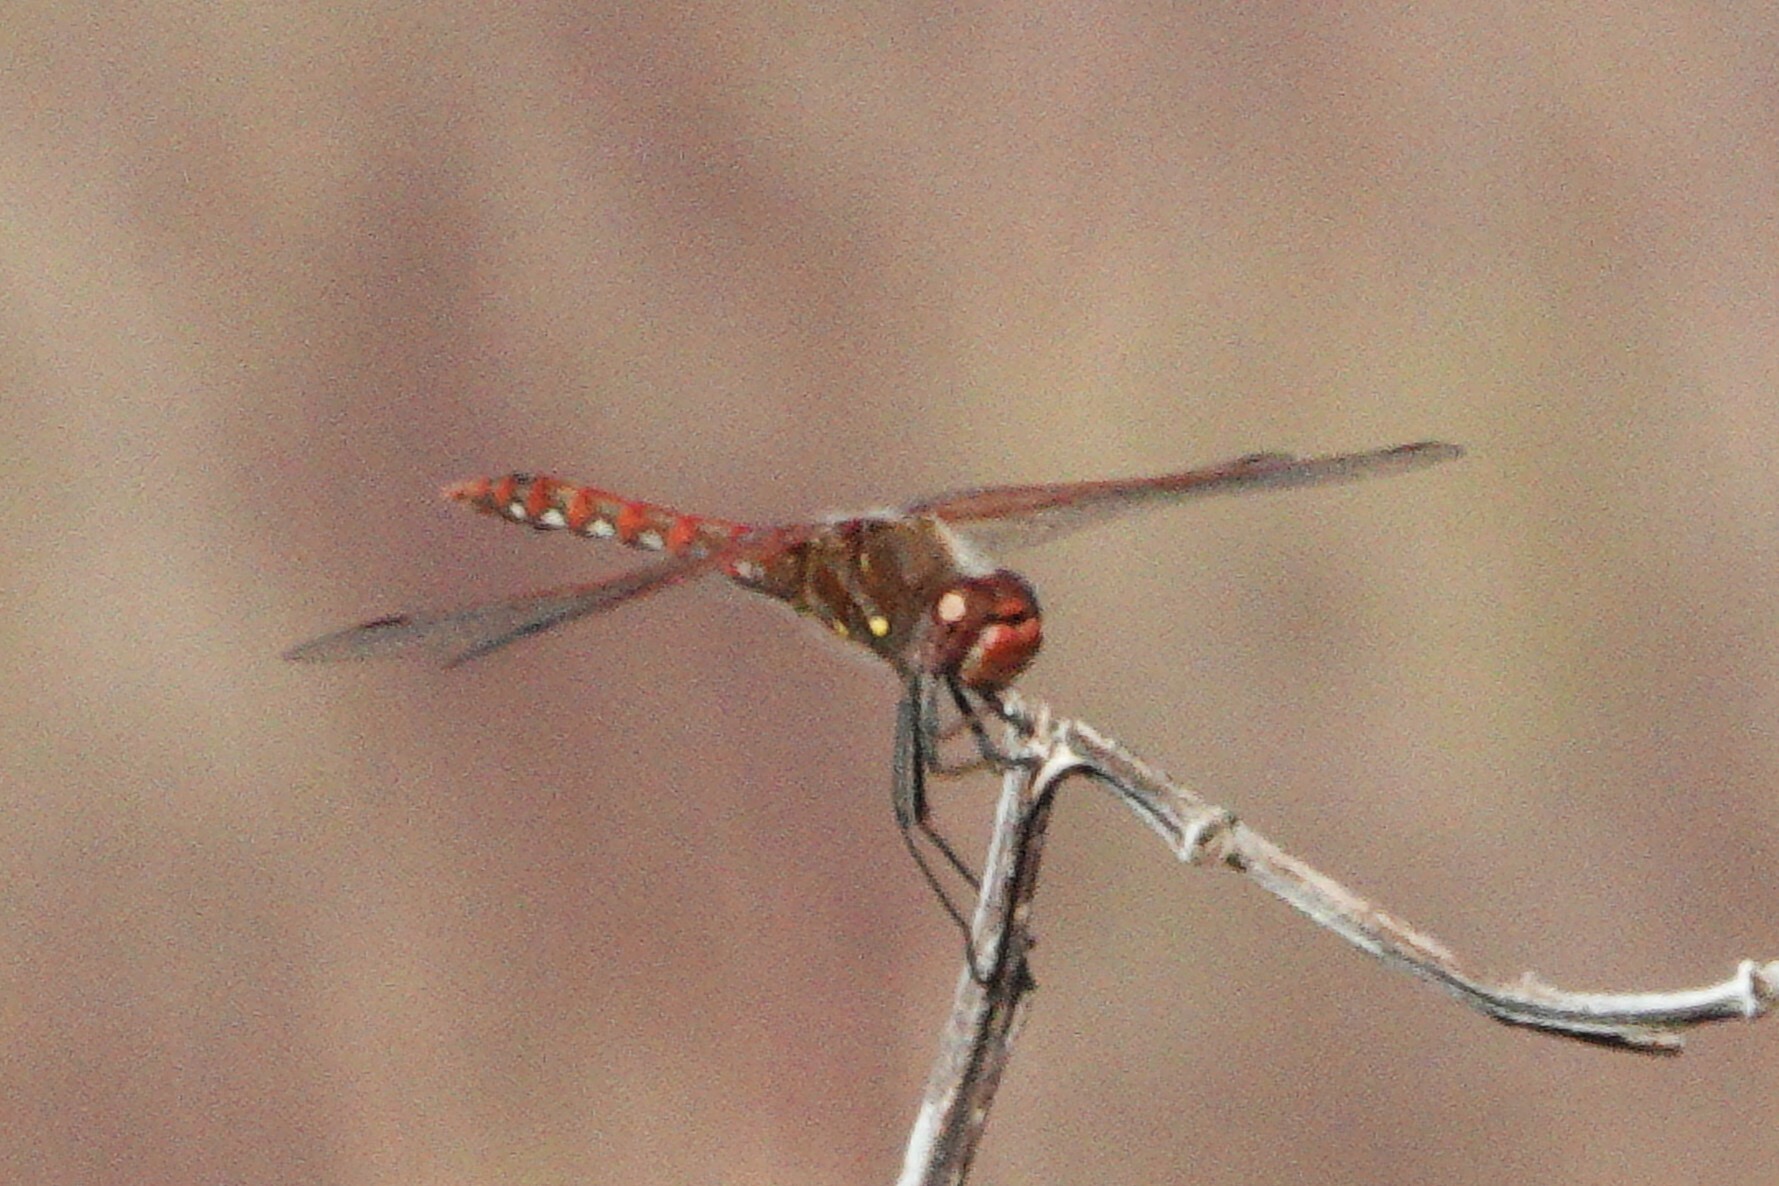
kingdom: Animalia
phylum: Arthropoda
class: Insecta
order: Odonata
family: Libellulidae
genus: Sympetrum
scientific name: Sympetrum corruptum
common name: Variegated meadowhawk
